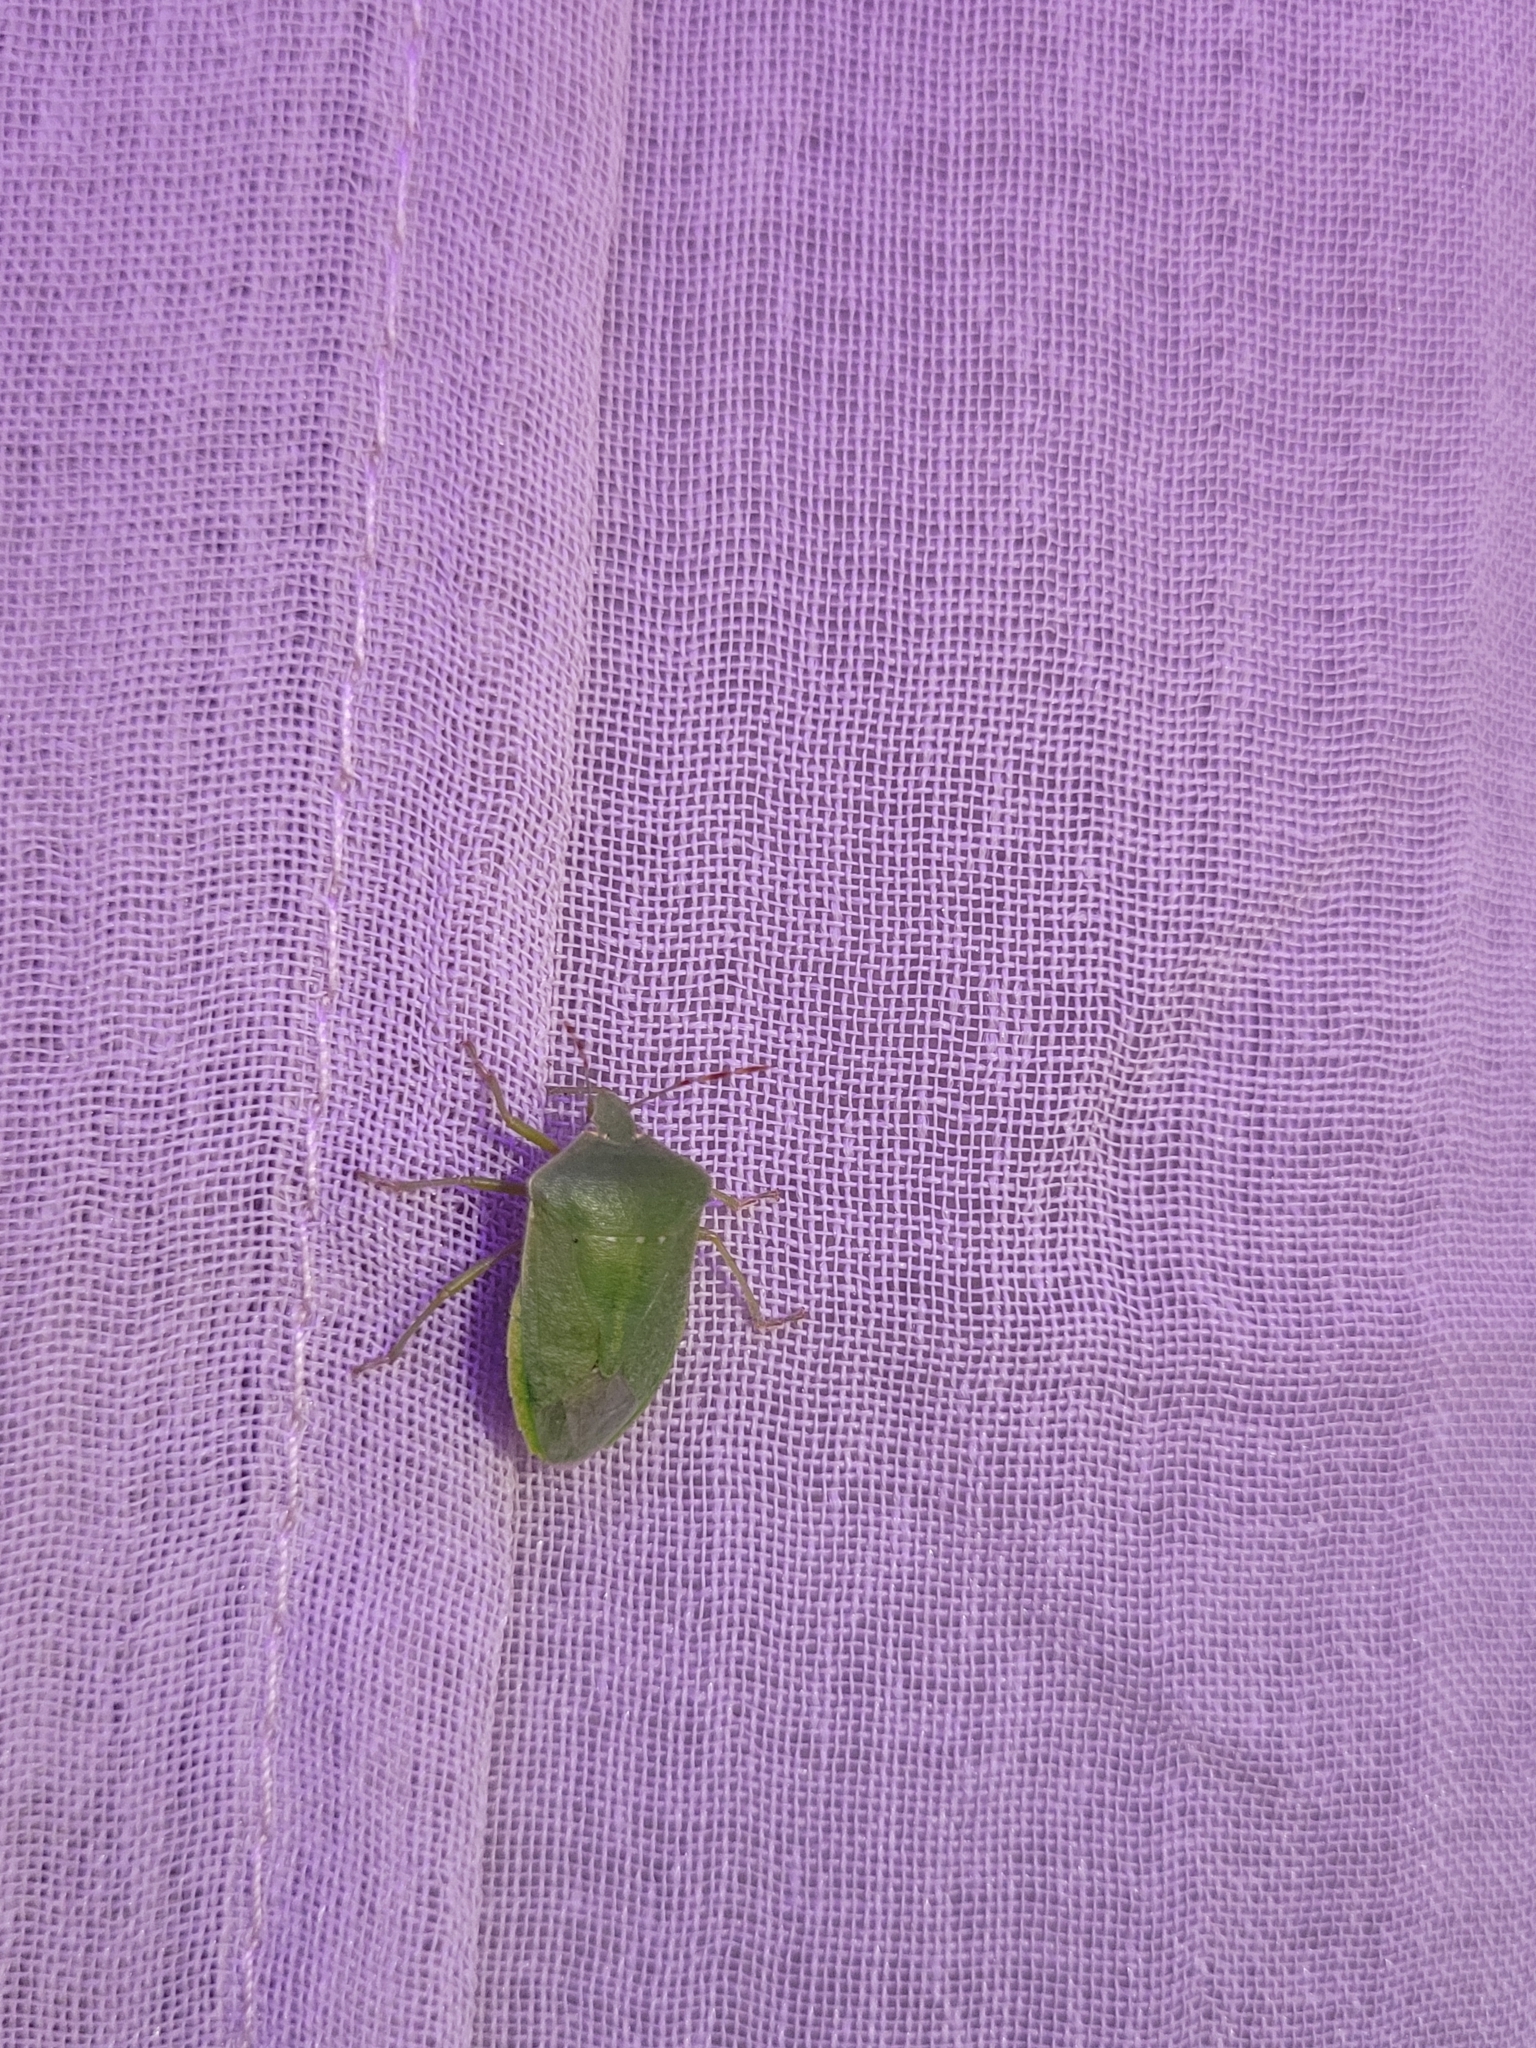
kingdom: Animalia
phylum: Arthropoda
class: Insecta
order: Hemiptera
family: Pentatomidae
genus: Nezara
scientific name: Nezara viridula
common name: Southern green stink bug
